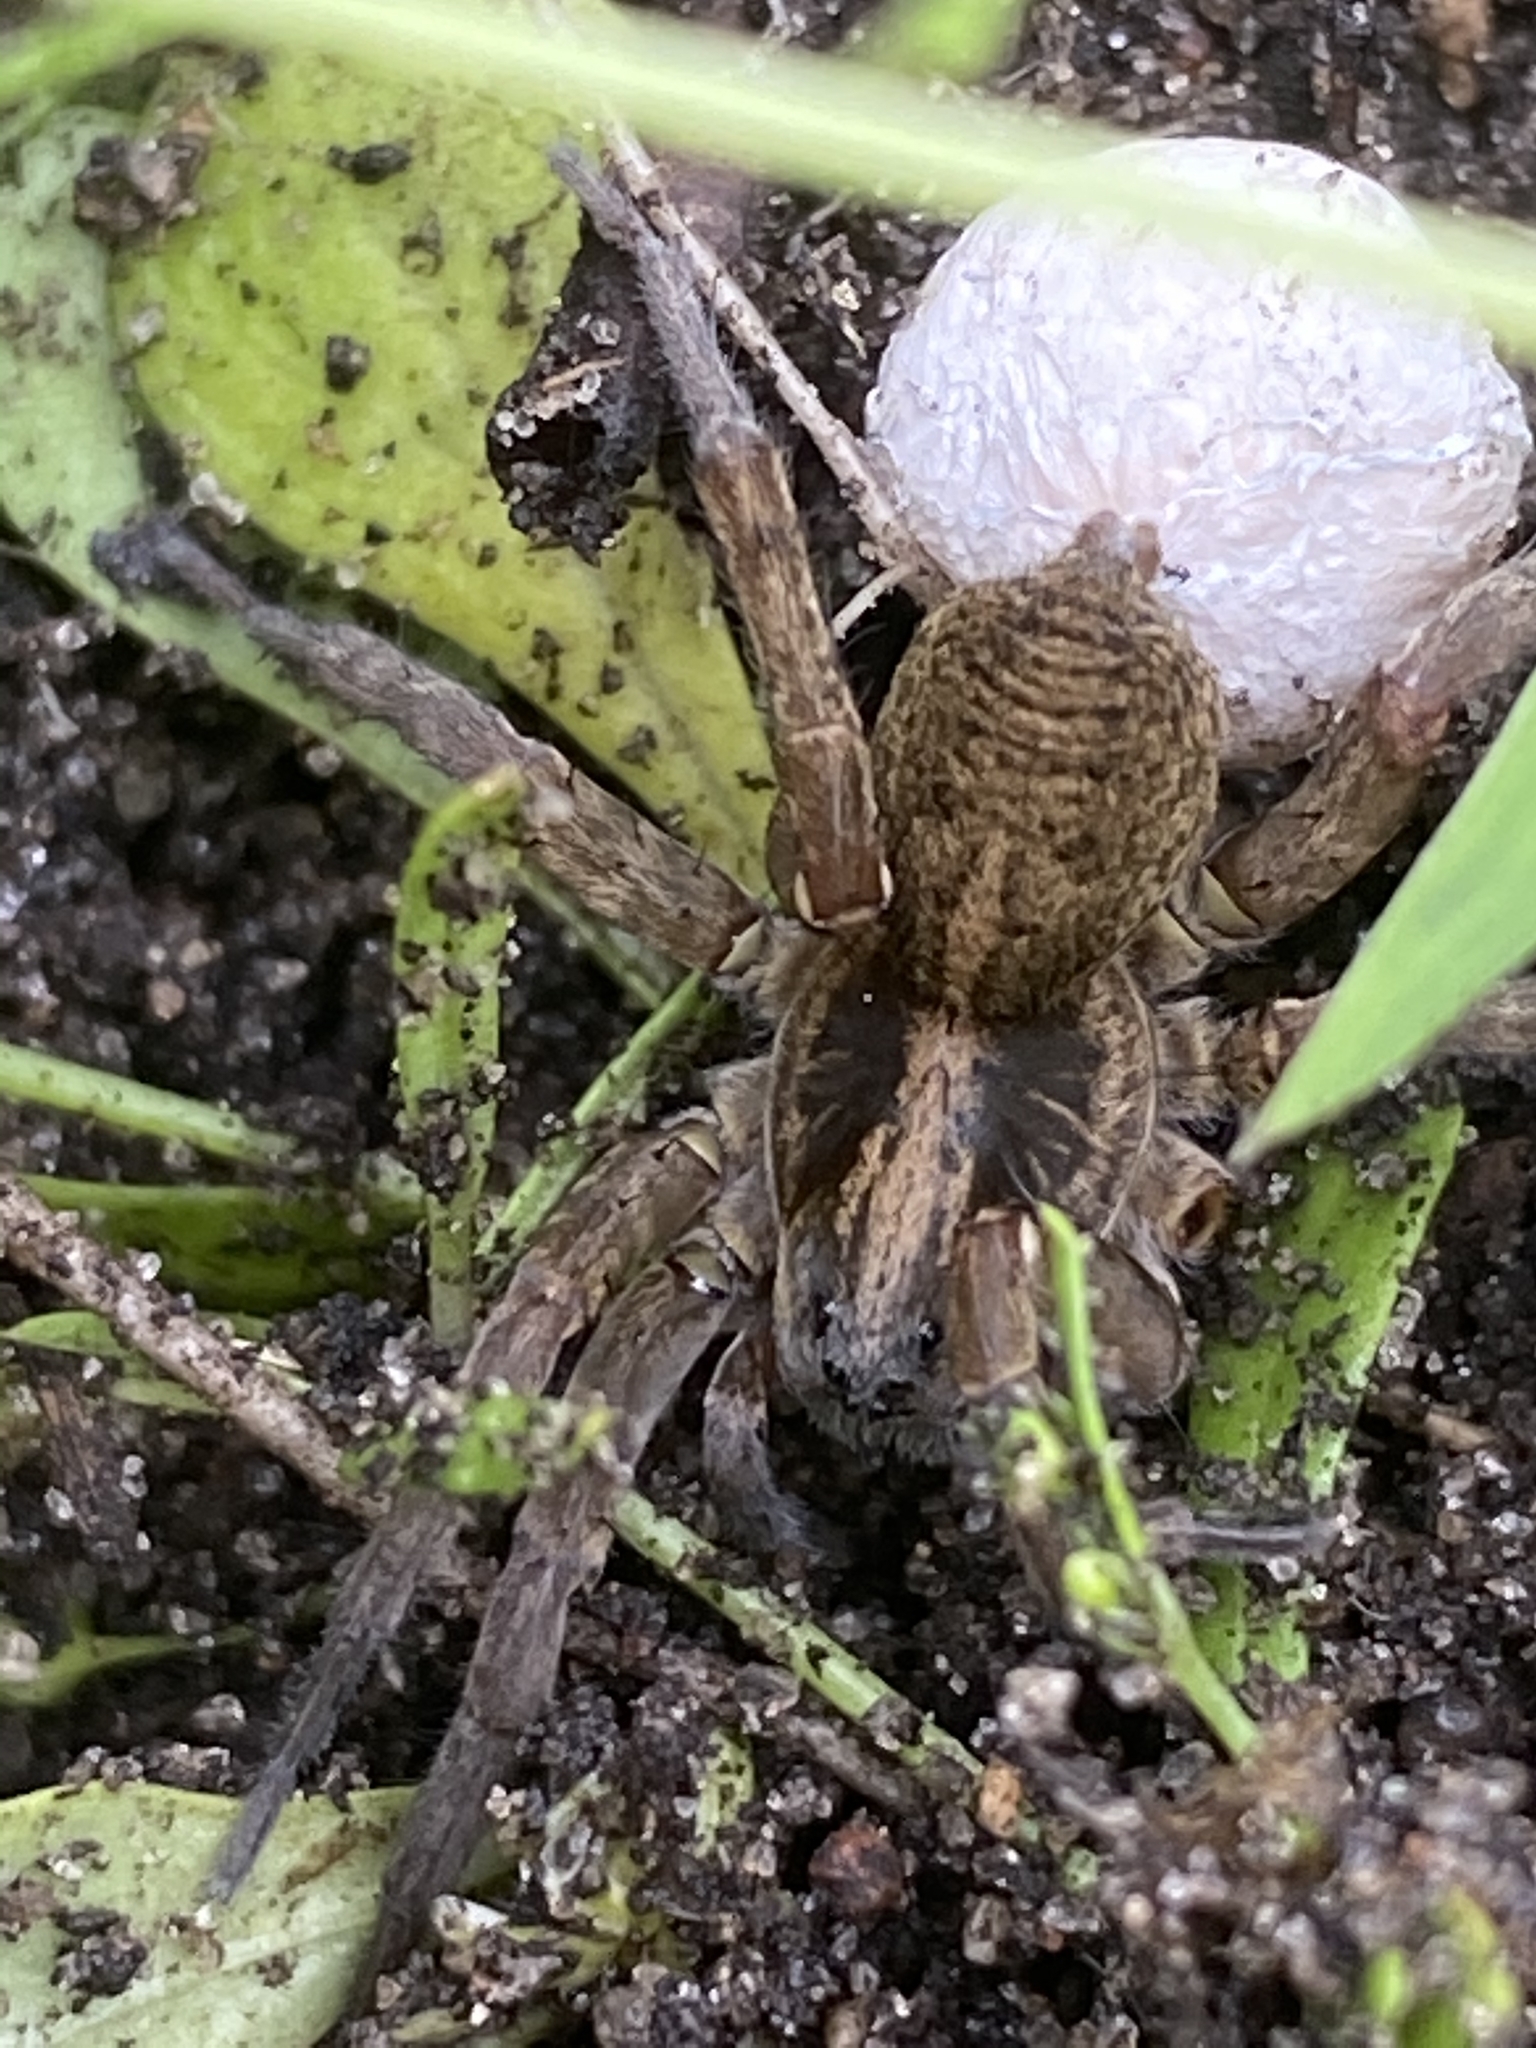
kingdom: Animalia
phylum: Arthropoda
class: Arachnida
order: Araneae
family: Lycosidae
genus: Trochosa
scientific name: Trochosa ruricola
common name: Spider
